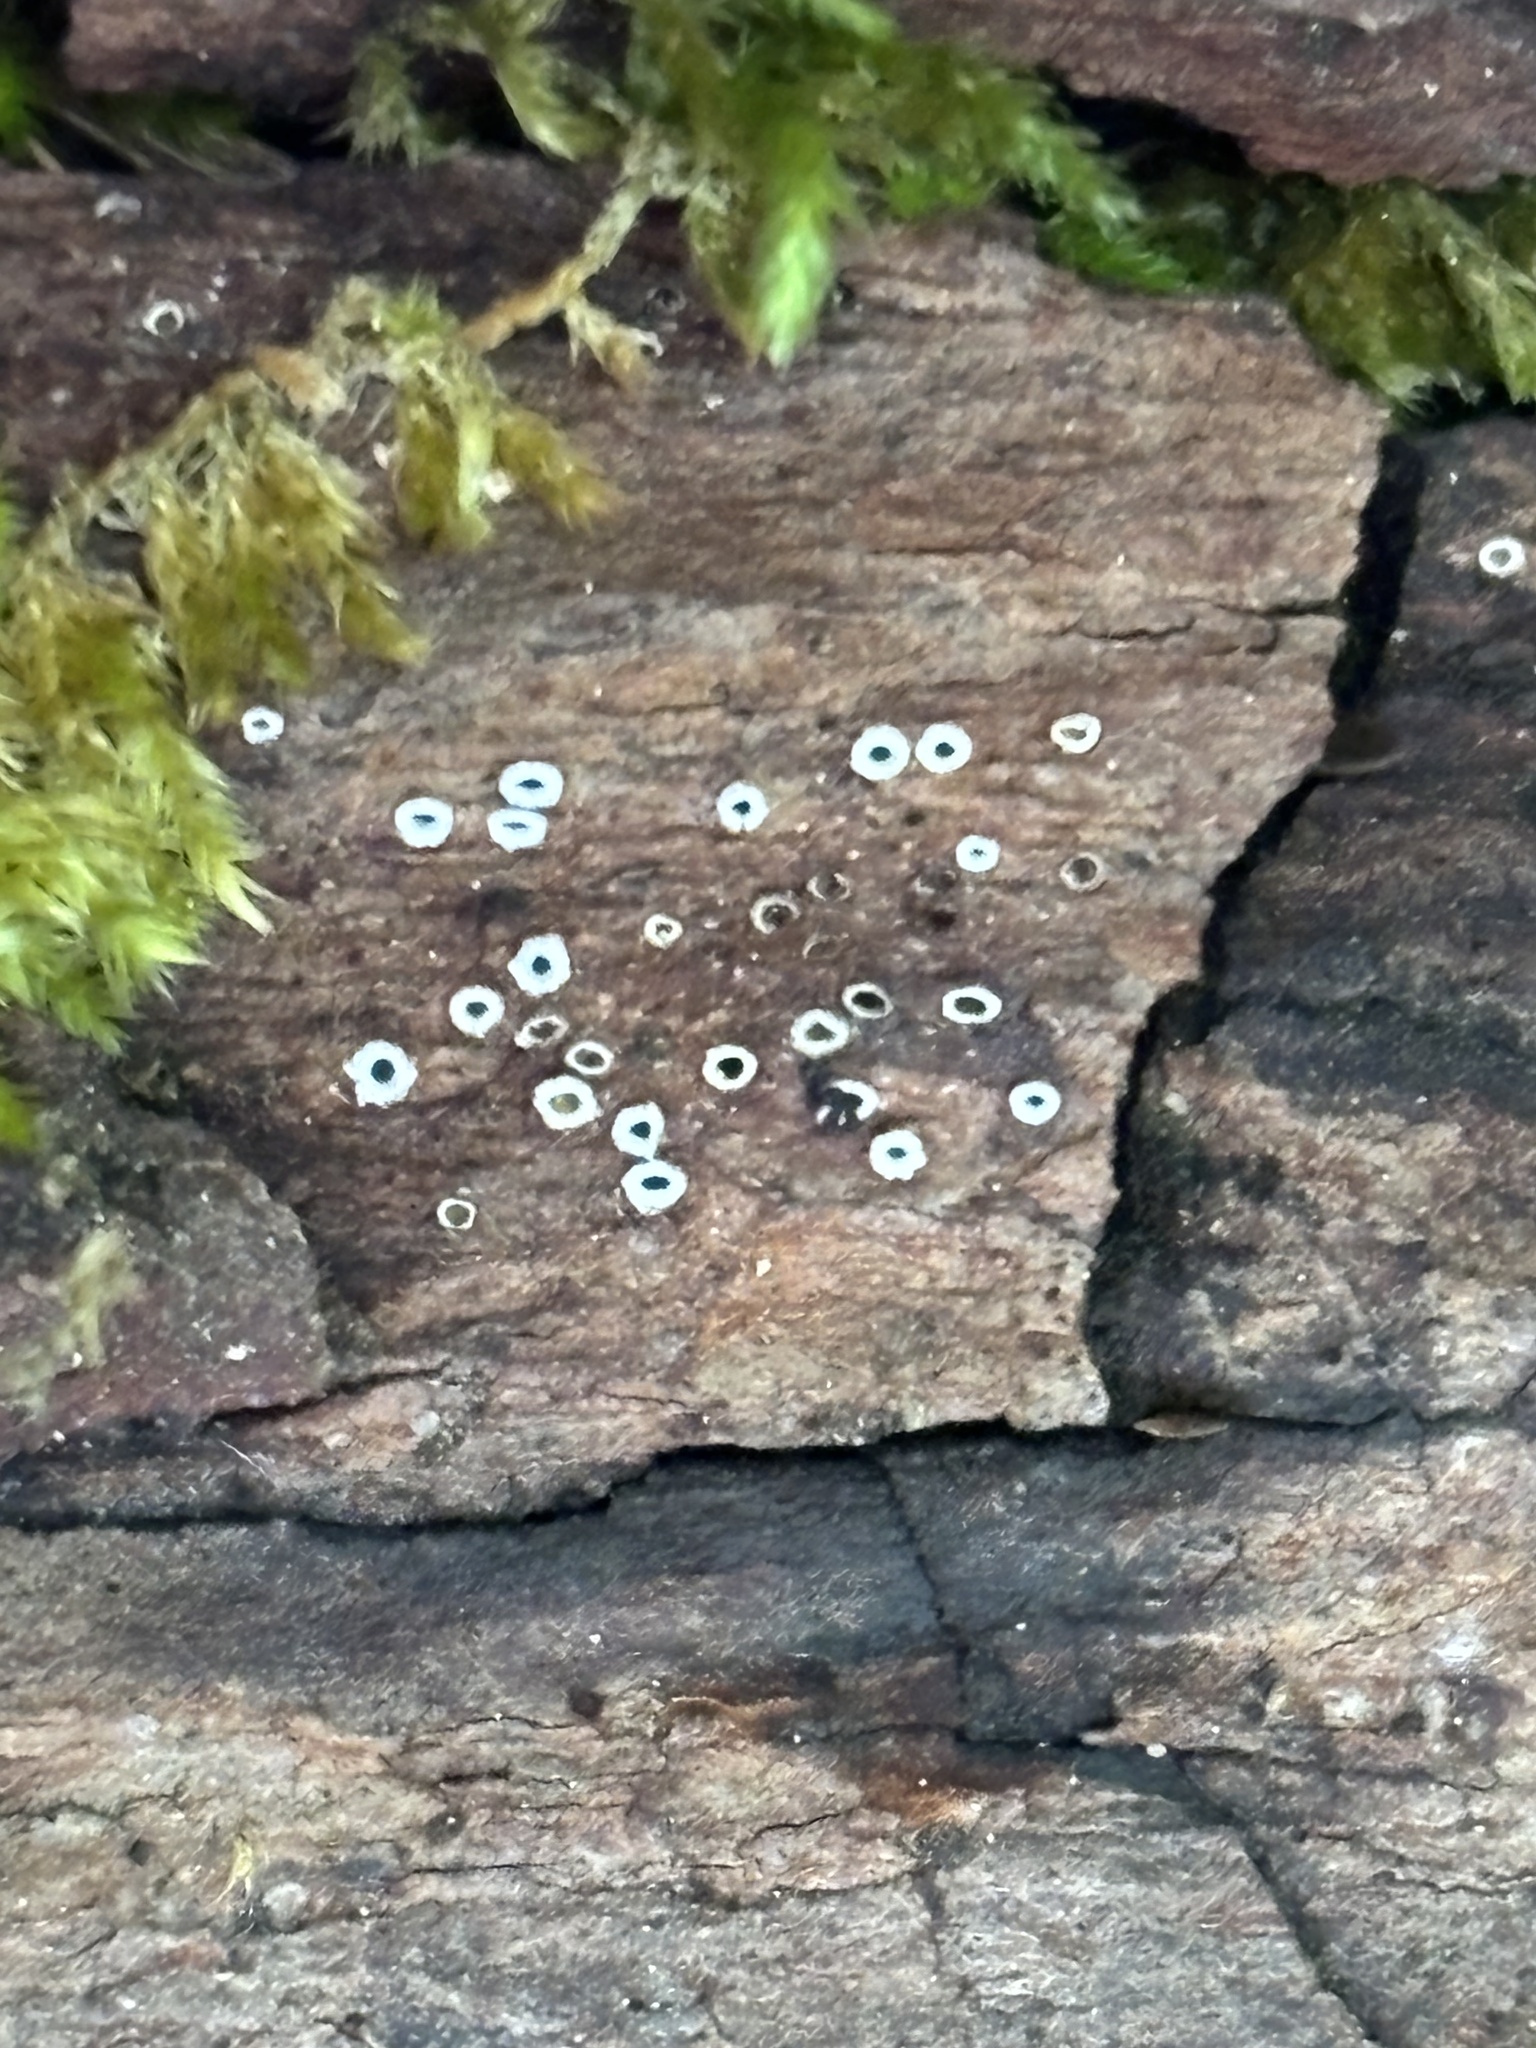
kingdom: Fungi
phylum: Ascomycota
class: Lecanoromycetes
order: Ostropales
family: Stictidaceae
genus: Stictis
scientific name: Stictis radiata
